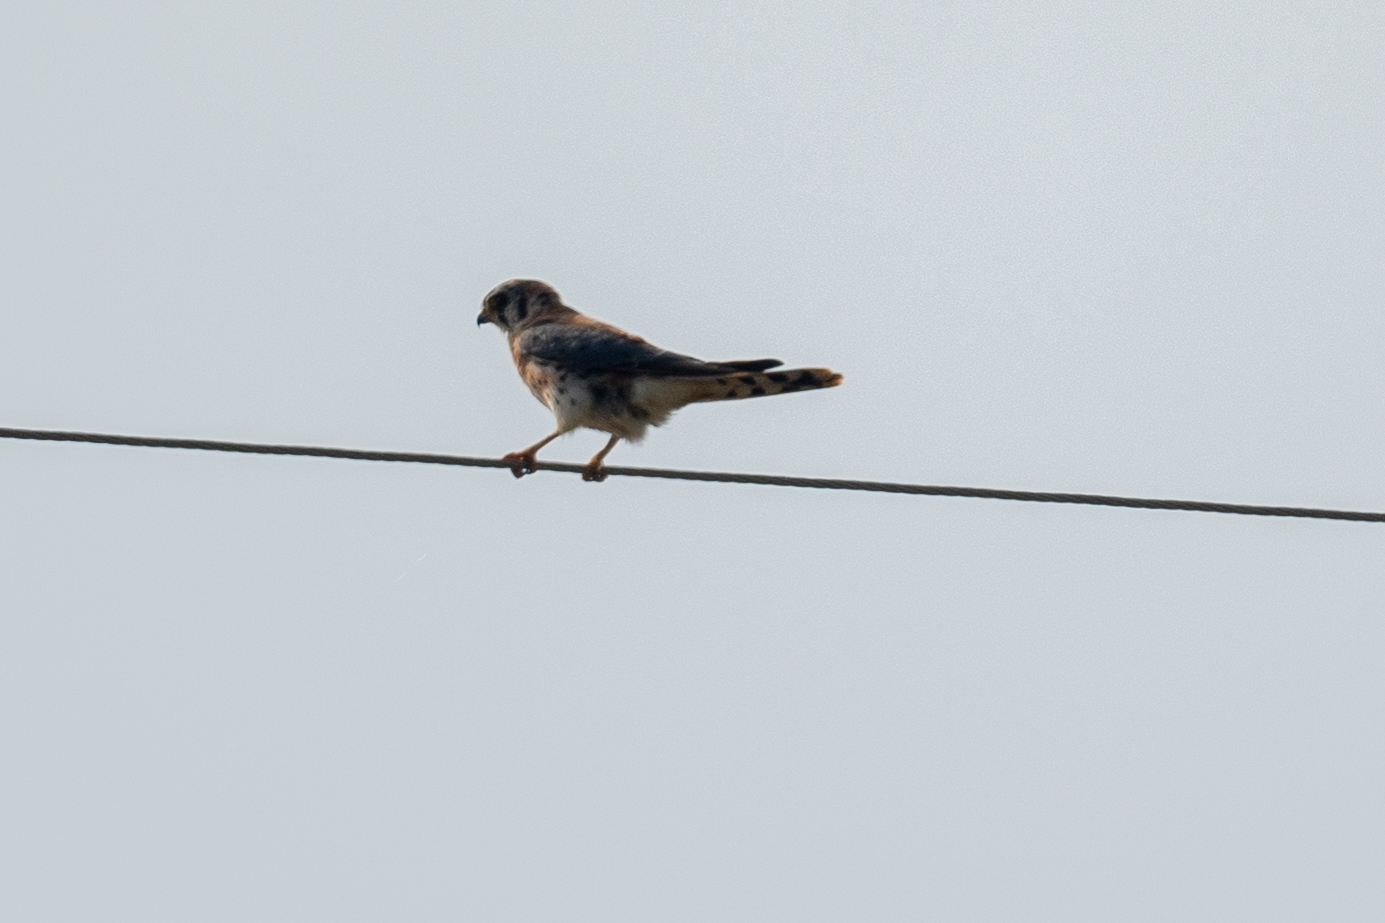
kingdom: Animalia
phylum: Chordata
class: Aves
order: Falconiformes
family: Falconidae
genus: Falco
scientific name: Falco sparverius
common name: American kestrel
